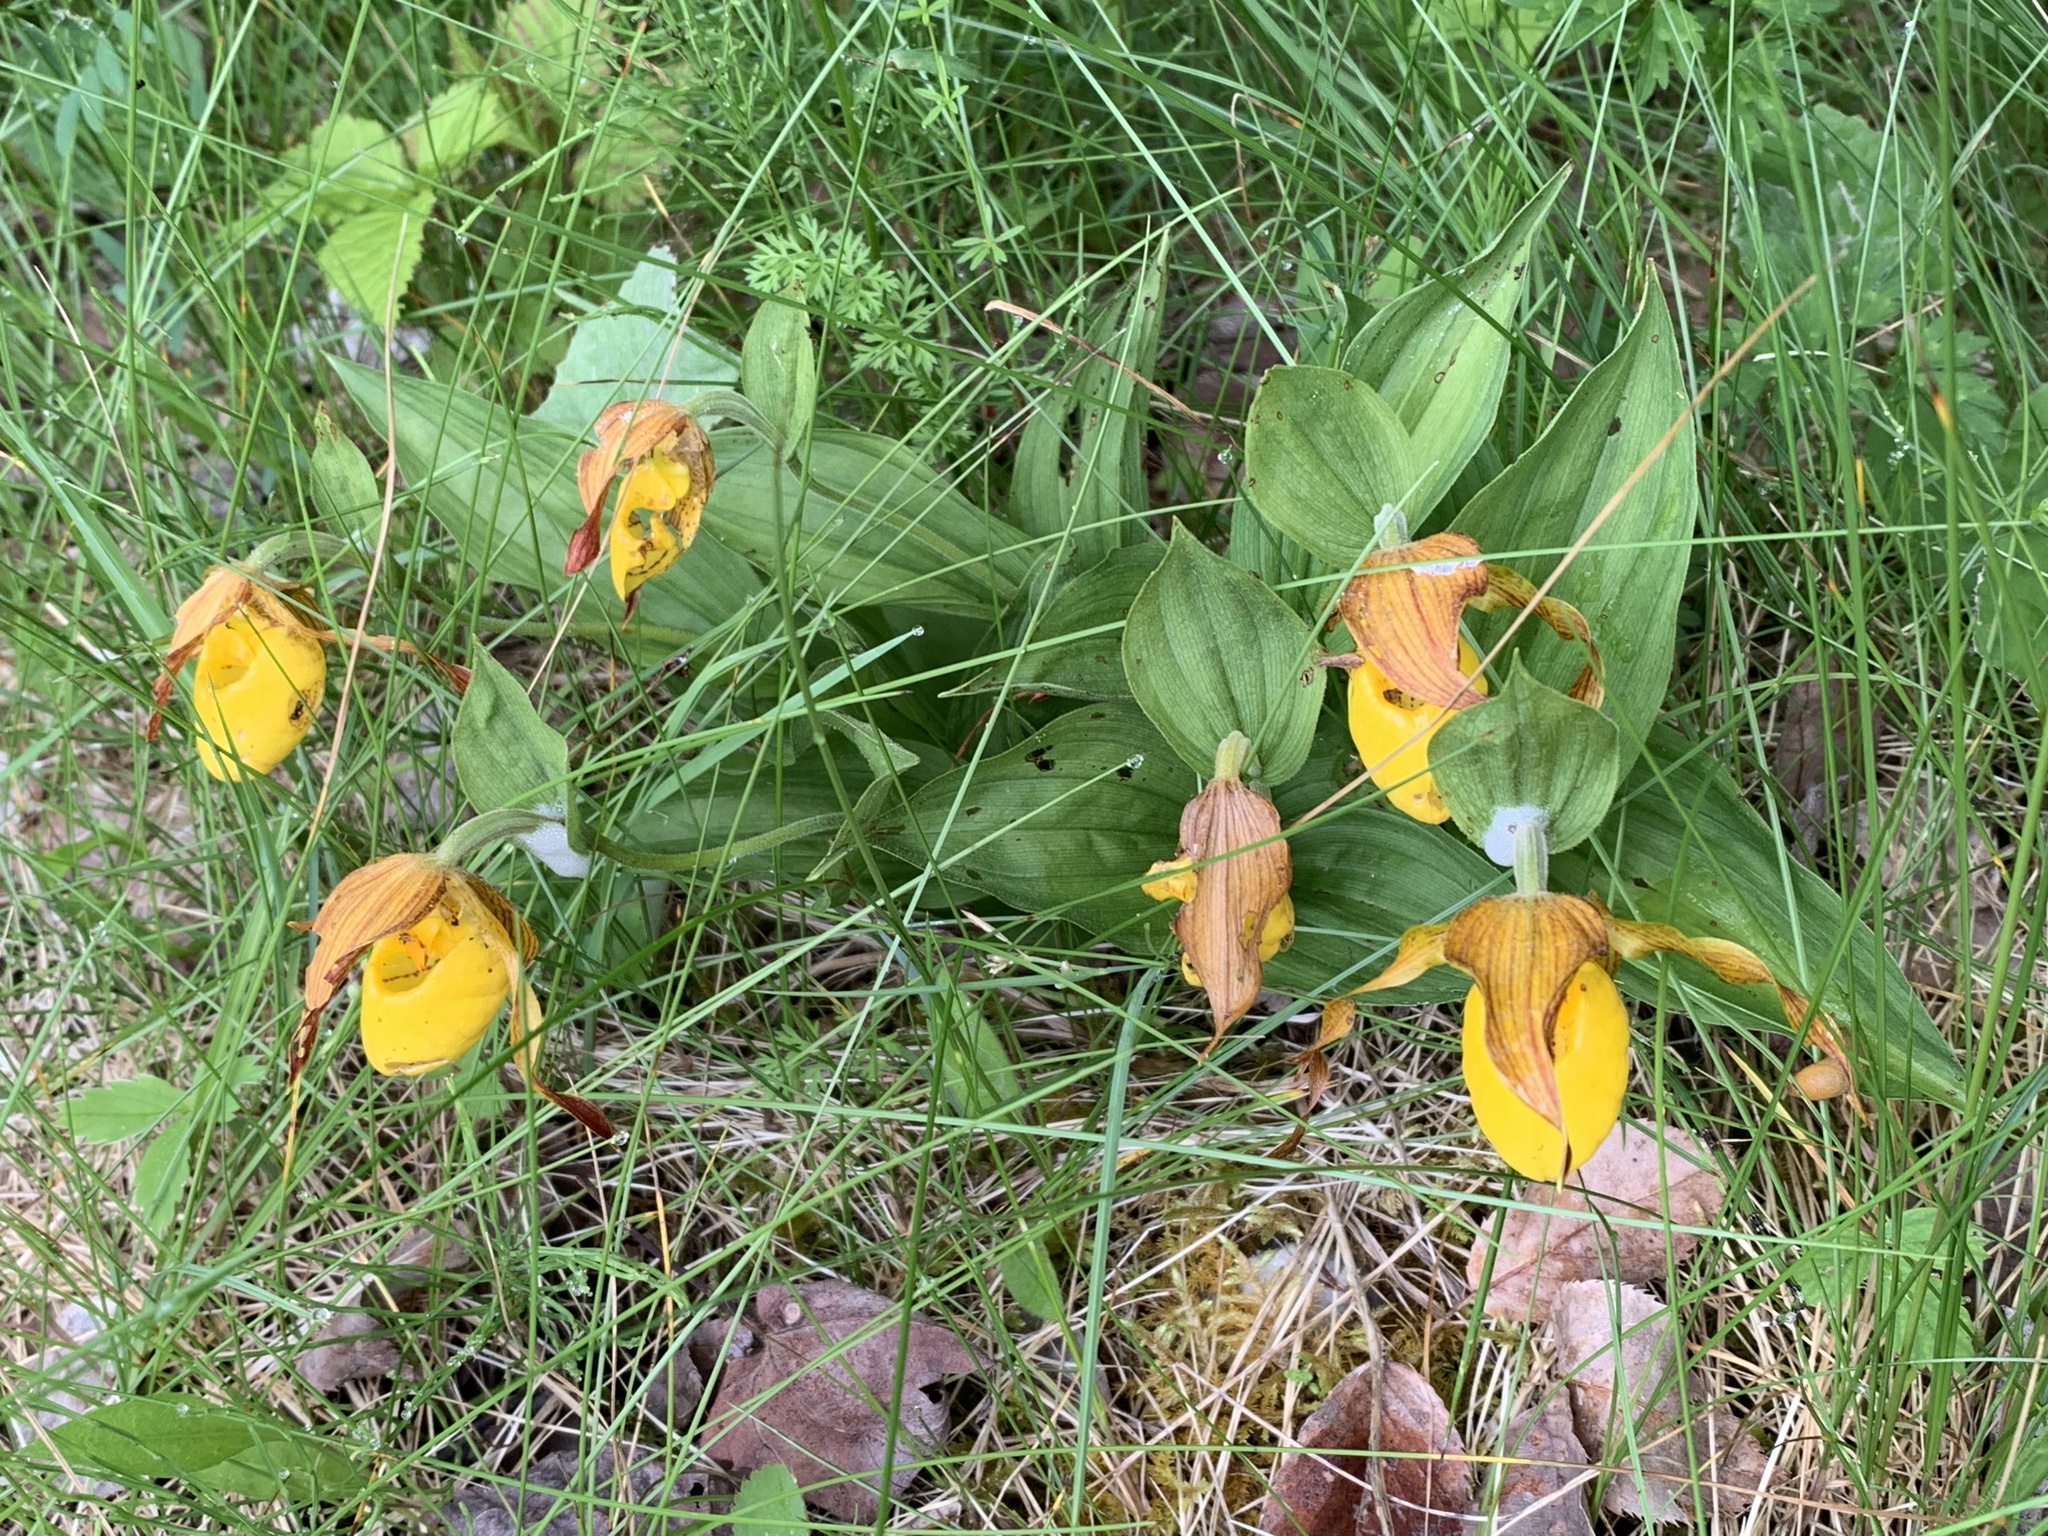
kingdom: Plantae
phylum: Tracheophyta
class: Liliopsida
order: Asparagales
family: Orchidaceae
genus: Cypripedium
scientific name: Cypripedium parviflorum
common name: American yellow lady's-slipper
